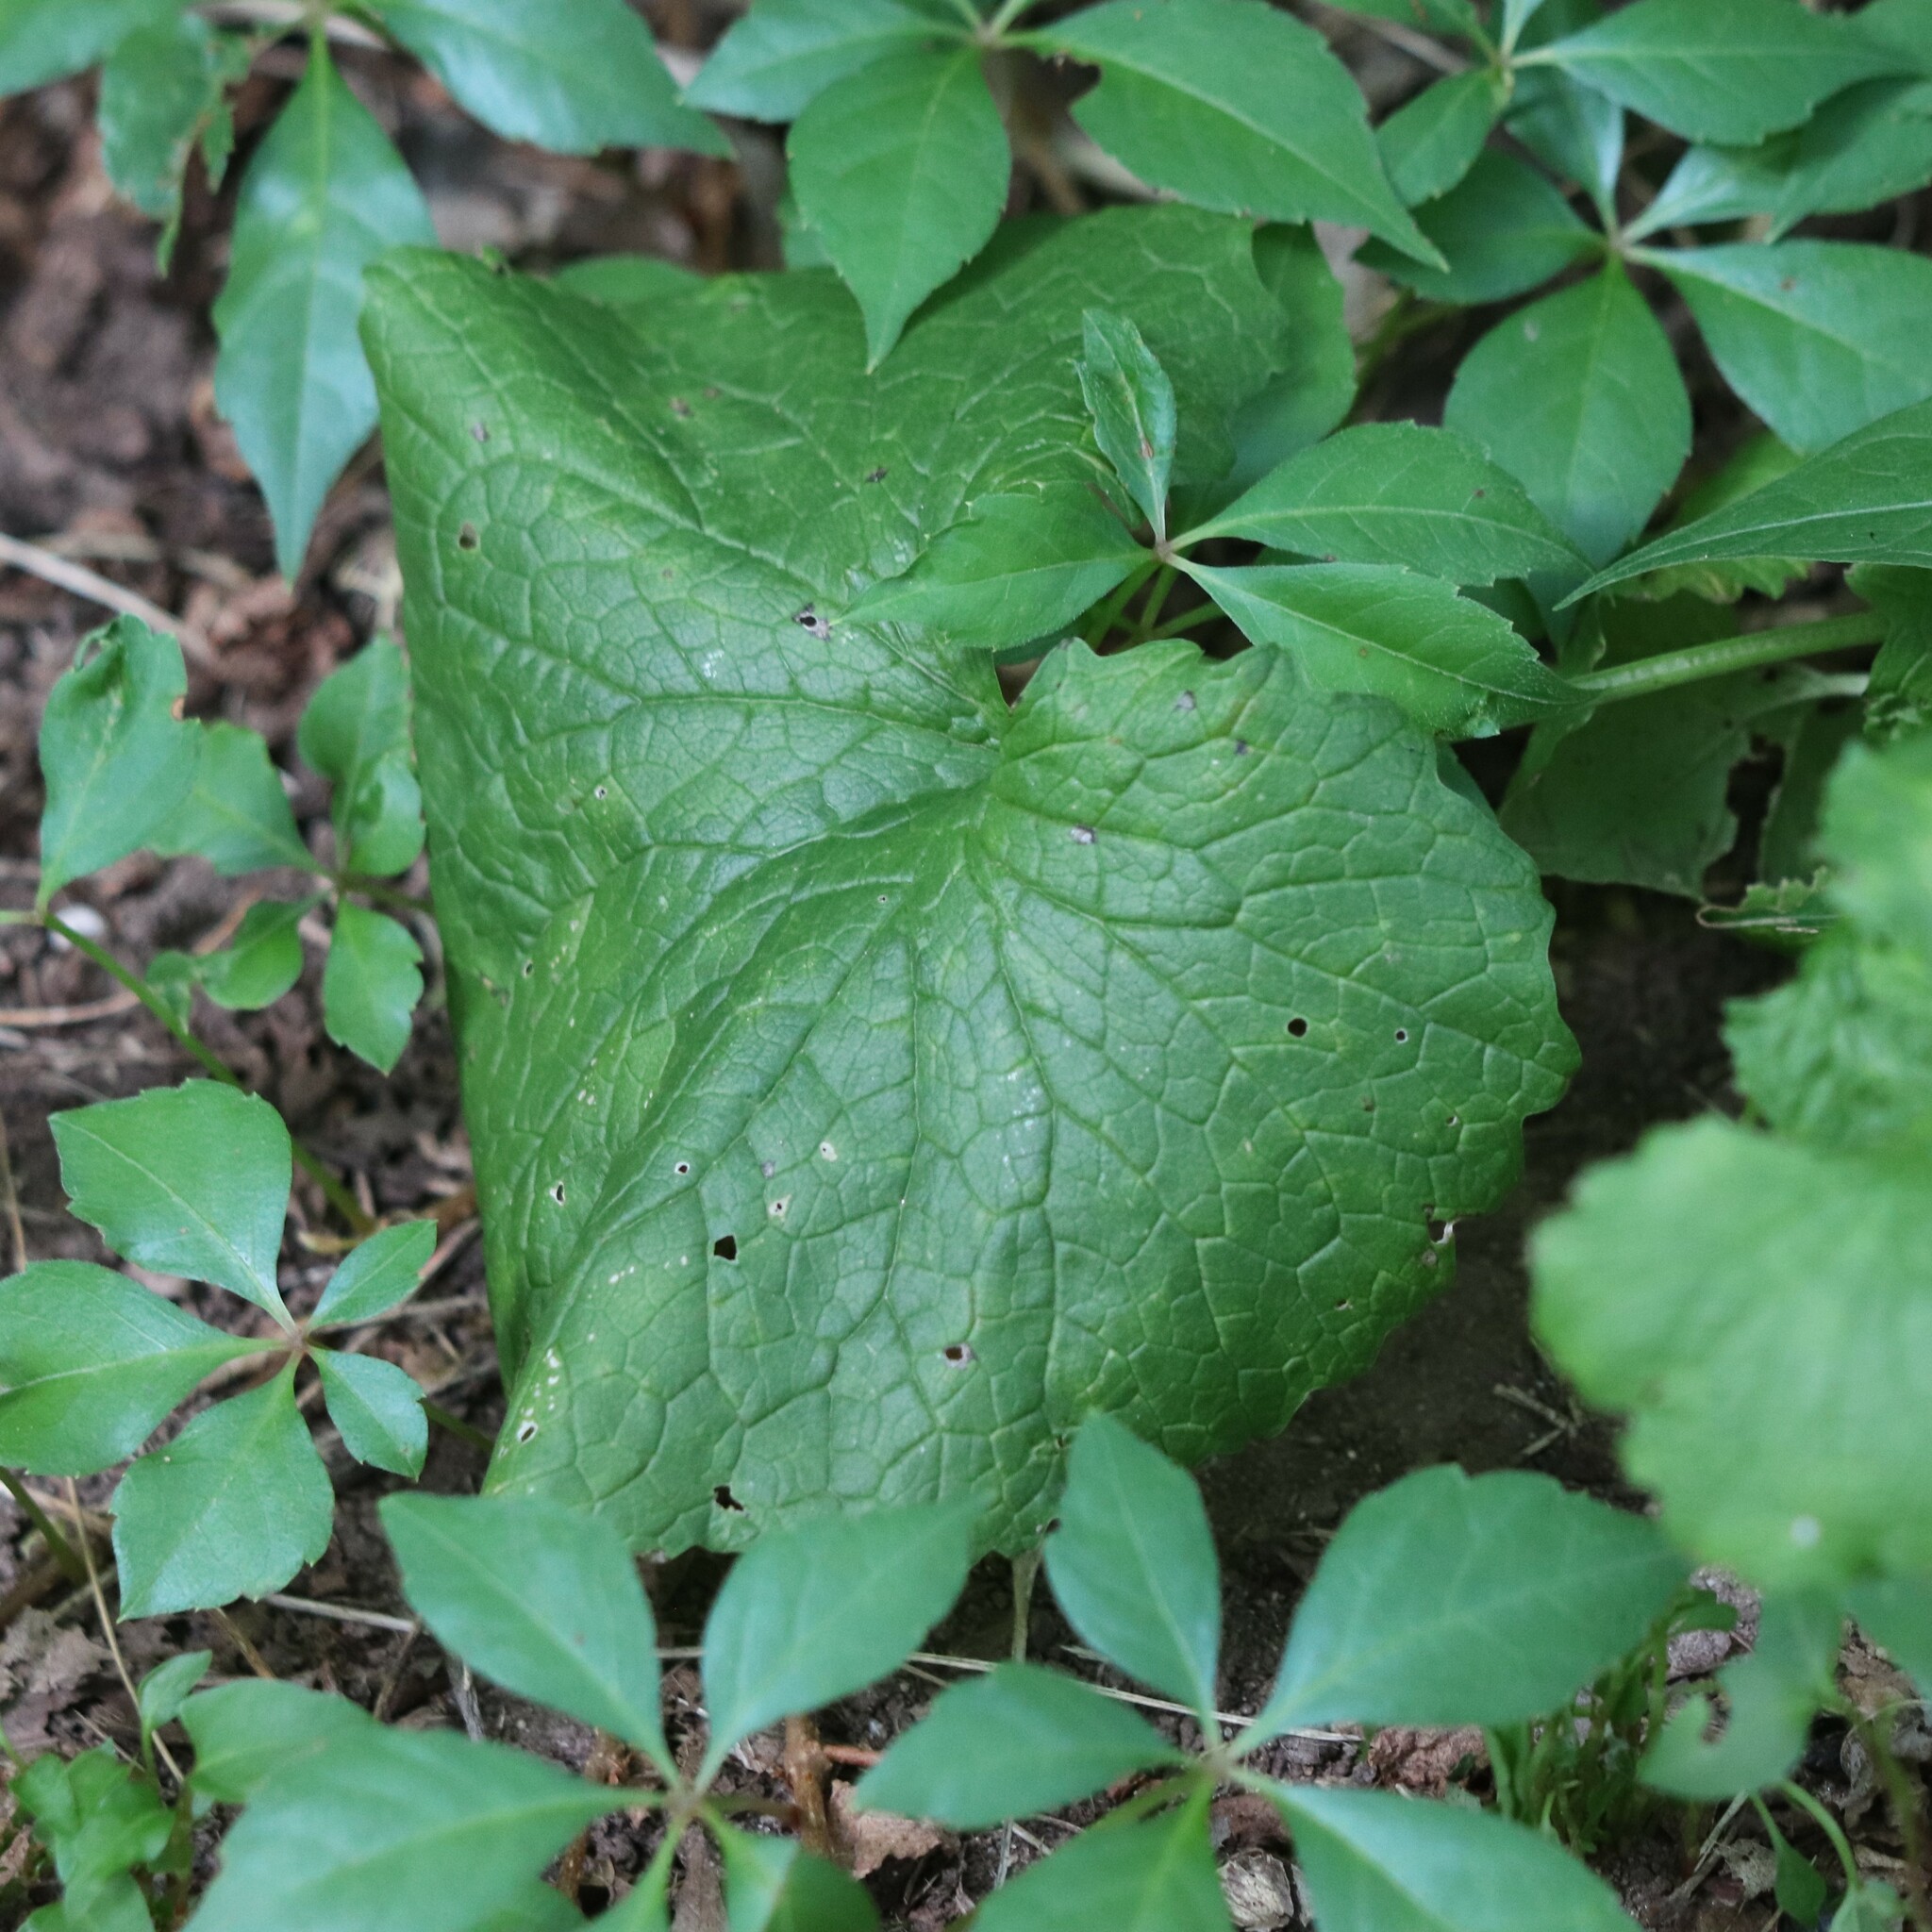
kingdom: Plantae
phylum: Tracheophyta
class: Magnoliopsida
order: Brassicales
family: Brassicaceae
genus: Alliaria
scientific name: Alliaria petiolata
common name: Garlic mustard
